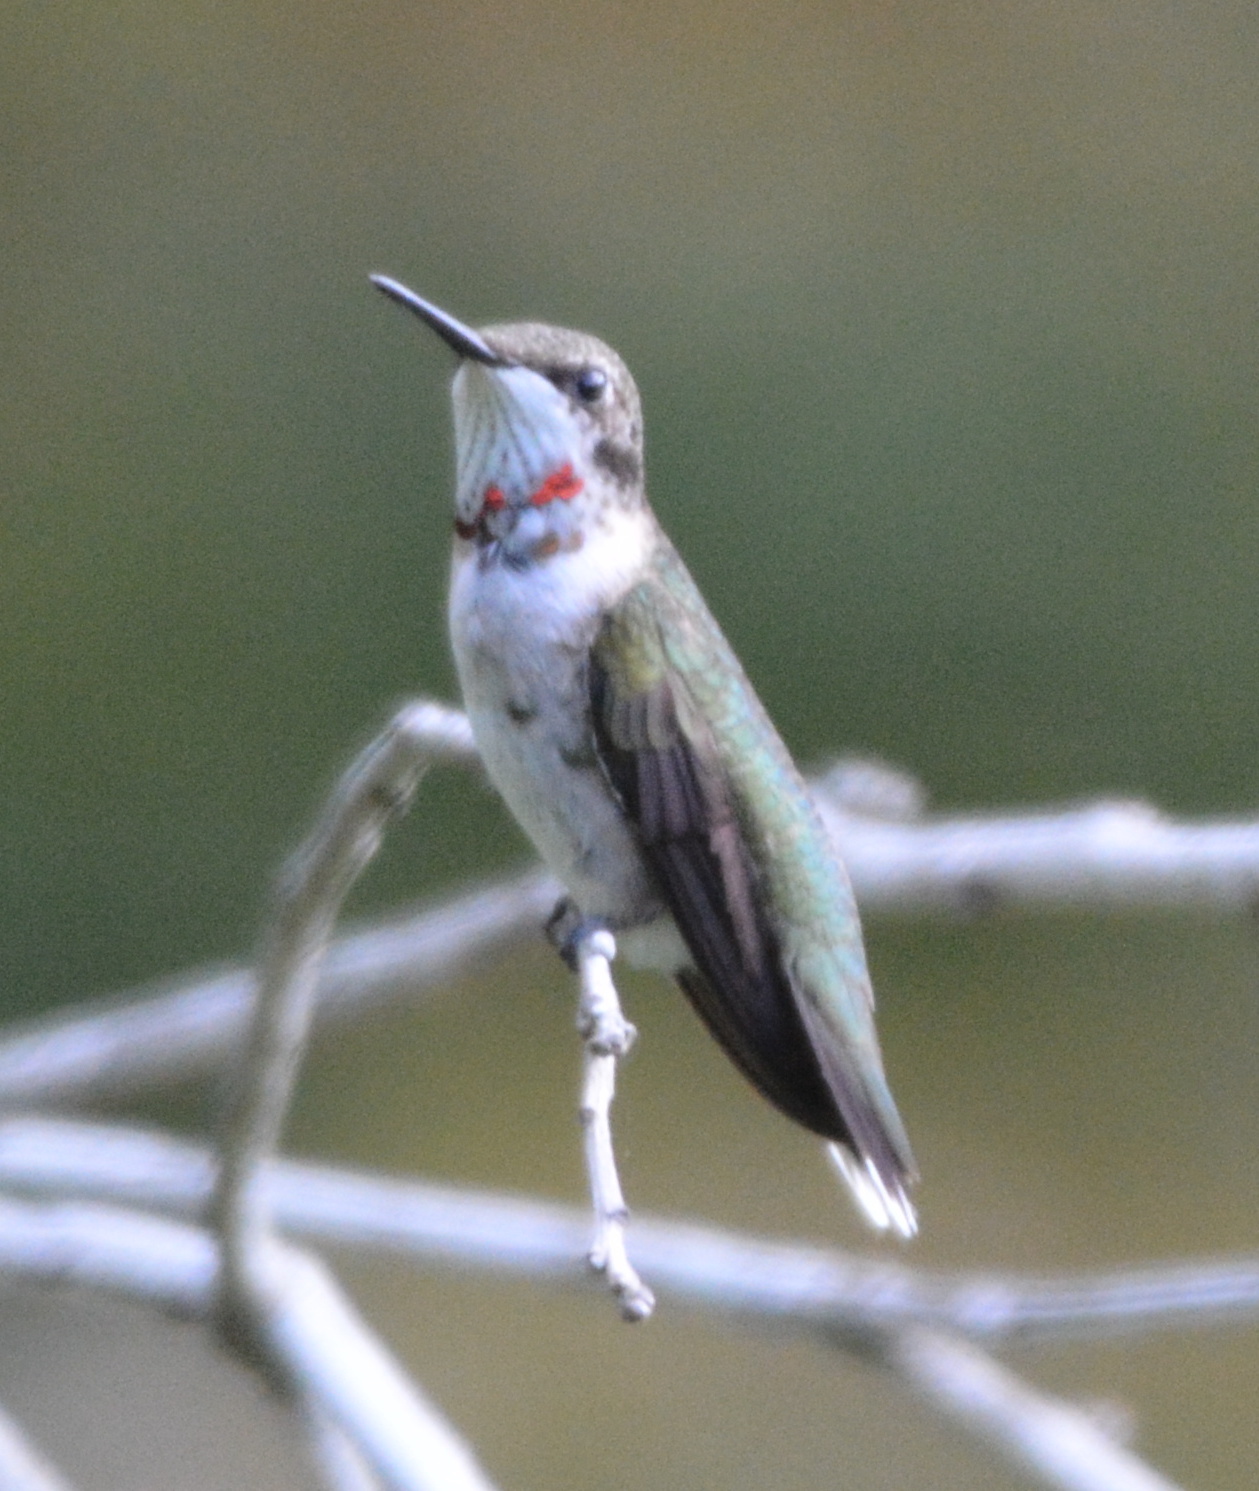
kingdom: Animalia
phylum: Chordata
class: Aves
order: Apodiformes
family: Trochilidae
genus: Archilochus
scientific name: Archilochus colubris
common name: Ruby-throated hummingbird
